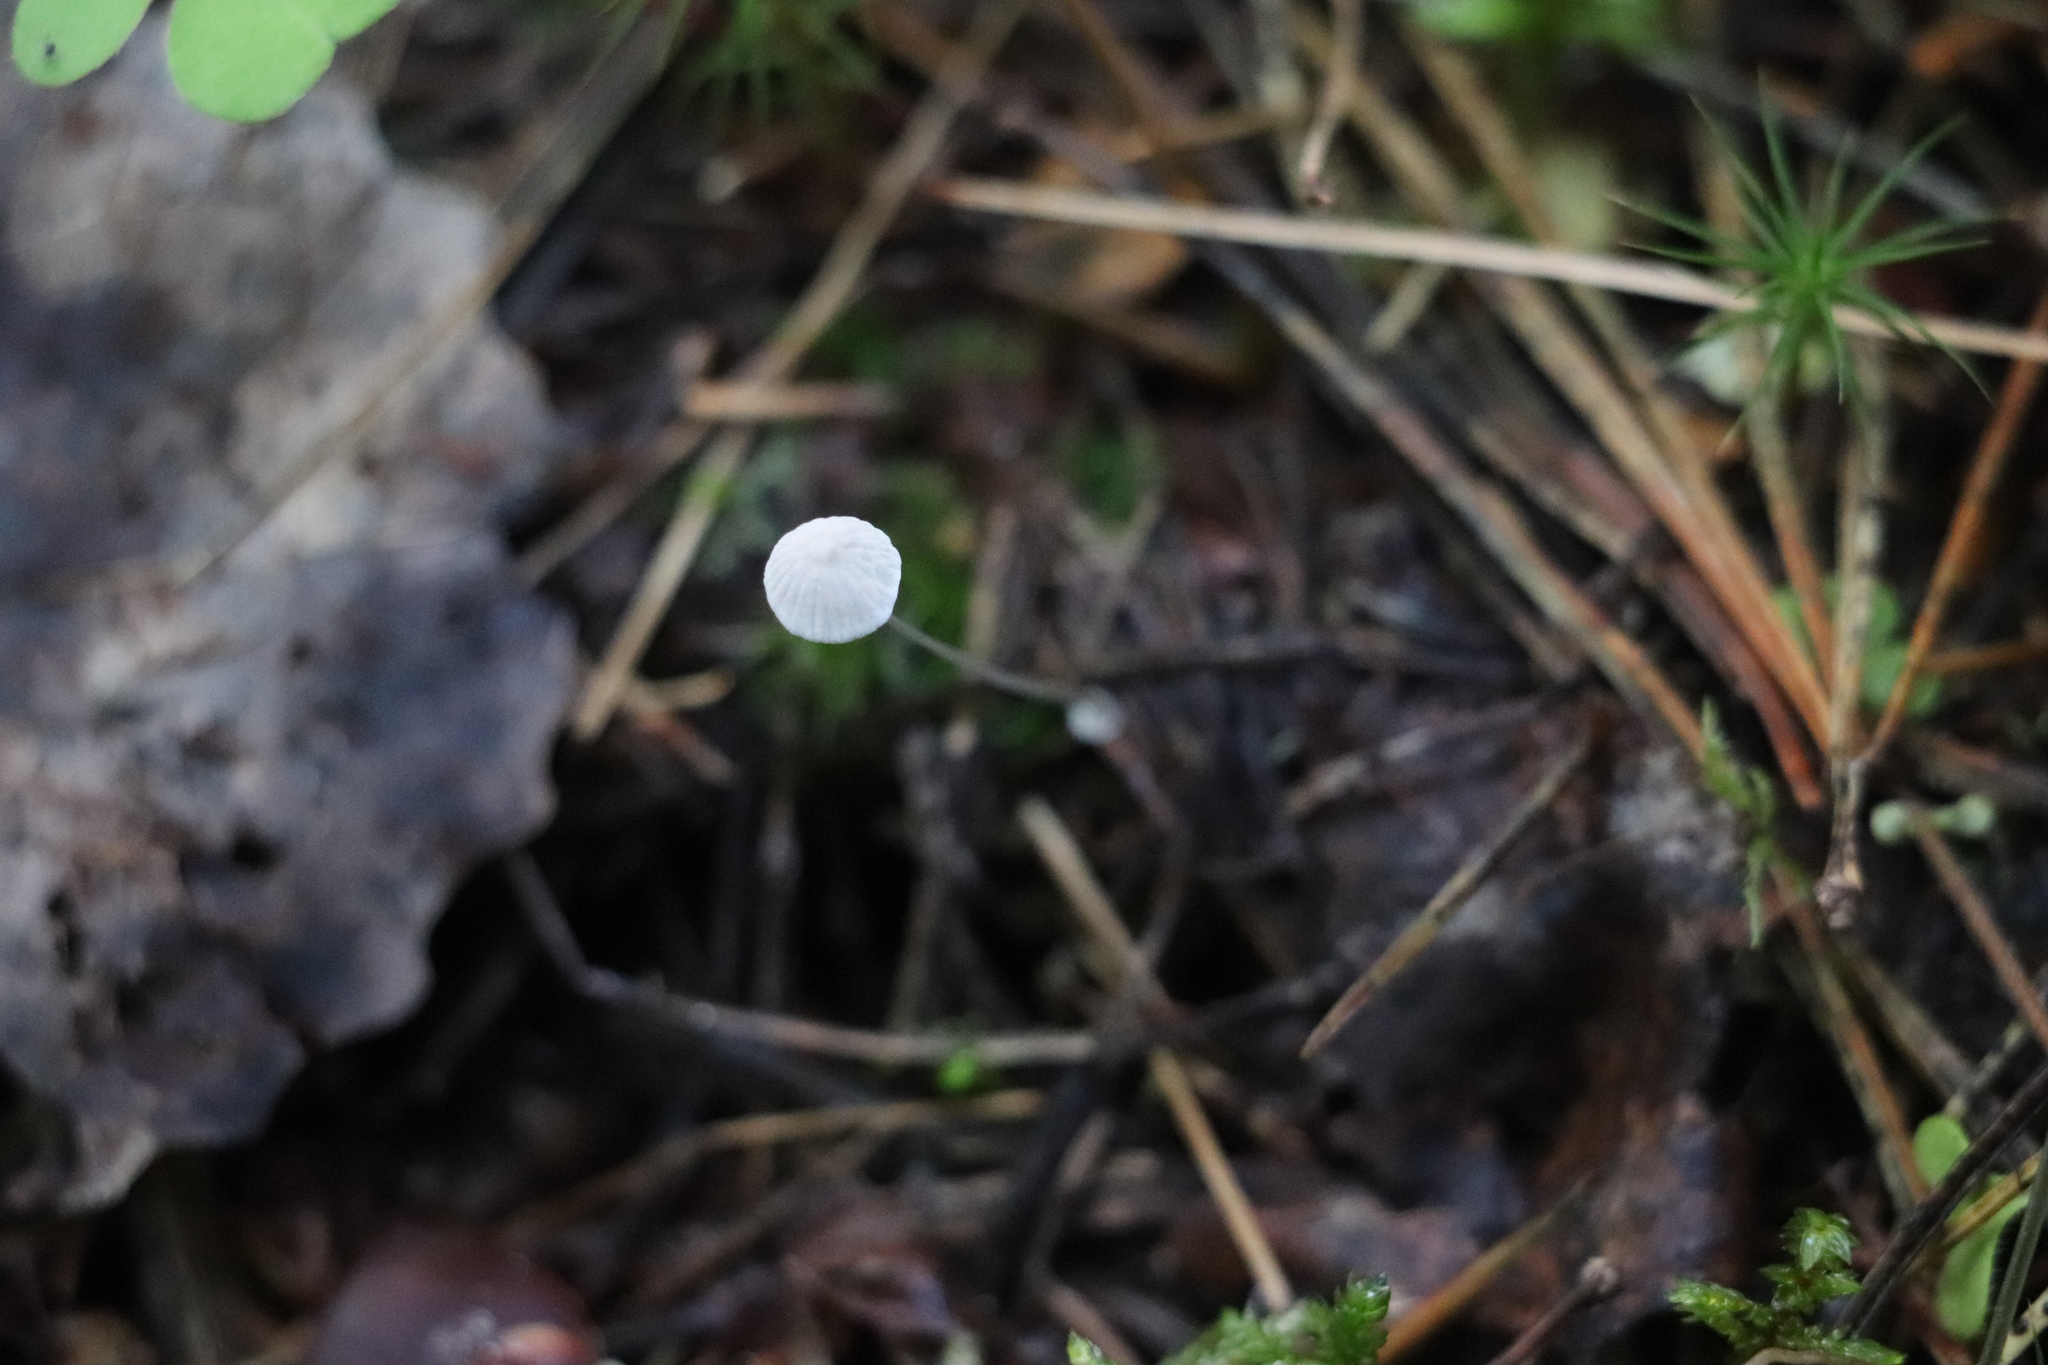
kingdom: Fungi
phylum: Basidiomycota
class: Agaricomycetes
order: Agaricales
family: Mycenaceae
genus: Mycena
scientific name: Mycena stipata
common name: Clustered pine bonnet
